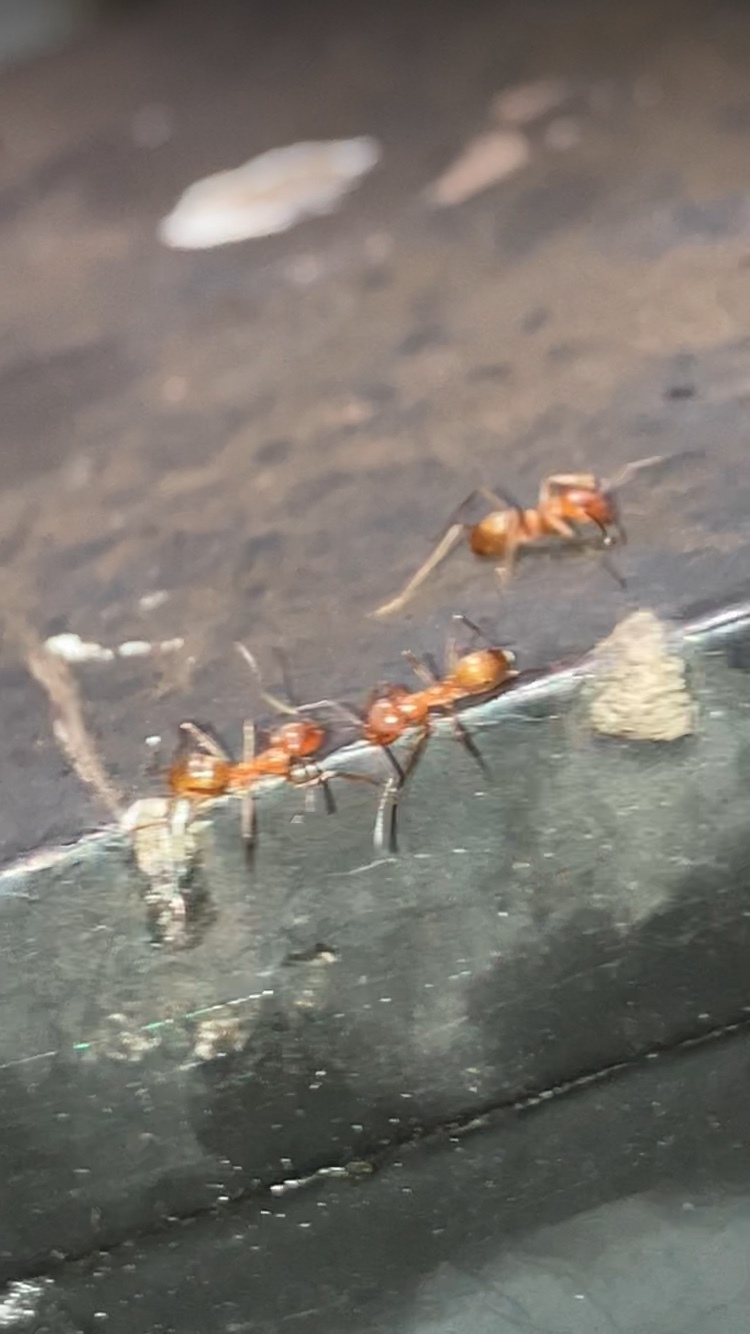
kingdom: Animalia
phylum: Arthropoda
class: Insecta
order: Hymenoptera
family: Formicidae
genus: Dorymyrmex
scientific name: Dorymyrmex bureni
